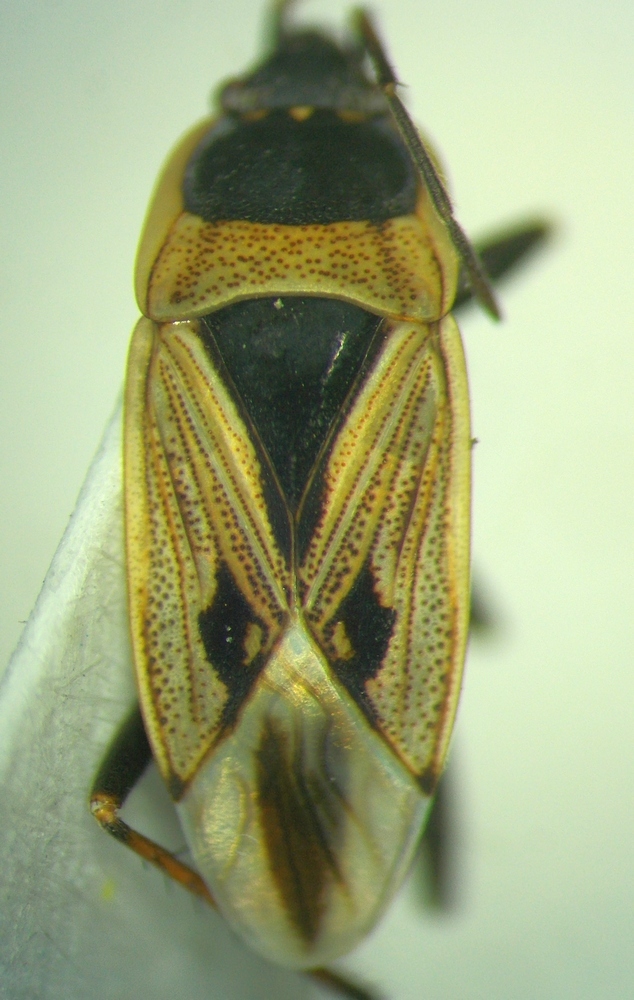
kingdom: Animalia
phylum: Arthropoda
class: Insecta
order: Hemiptera
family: Rhyparochromidae
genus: Xanthochilus
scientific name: Xanthochilus quadratus
